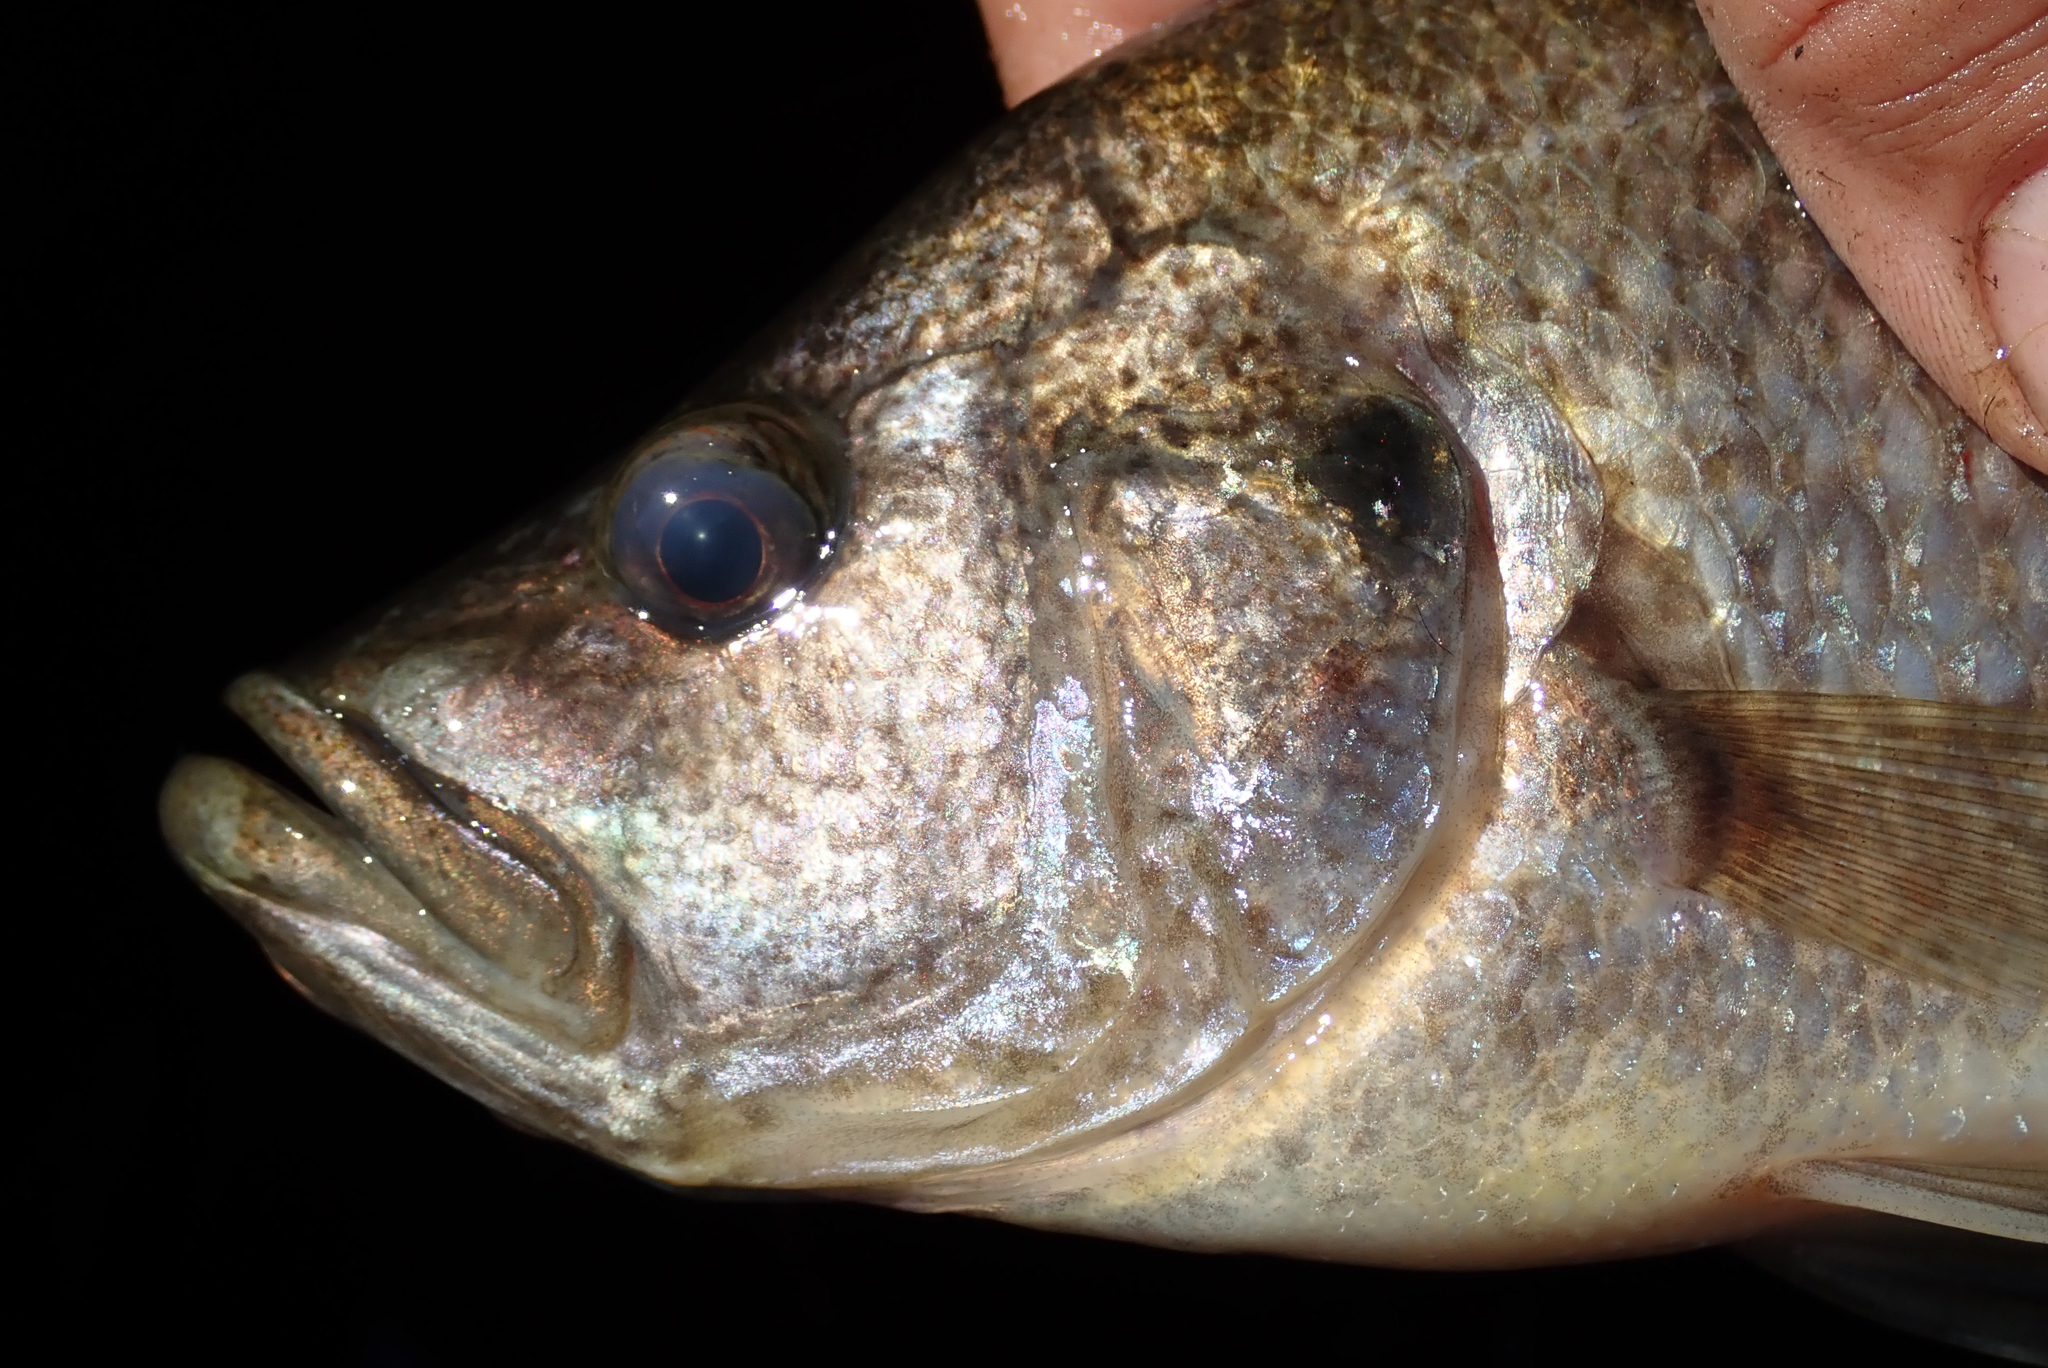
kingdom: Animalia
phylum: Chordata
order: Perciformes
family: Cichlidae
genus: Serranochromis
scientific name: Serranochromis angusticeps
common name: Thinface largemouth
